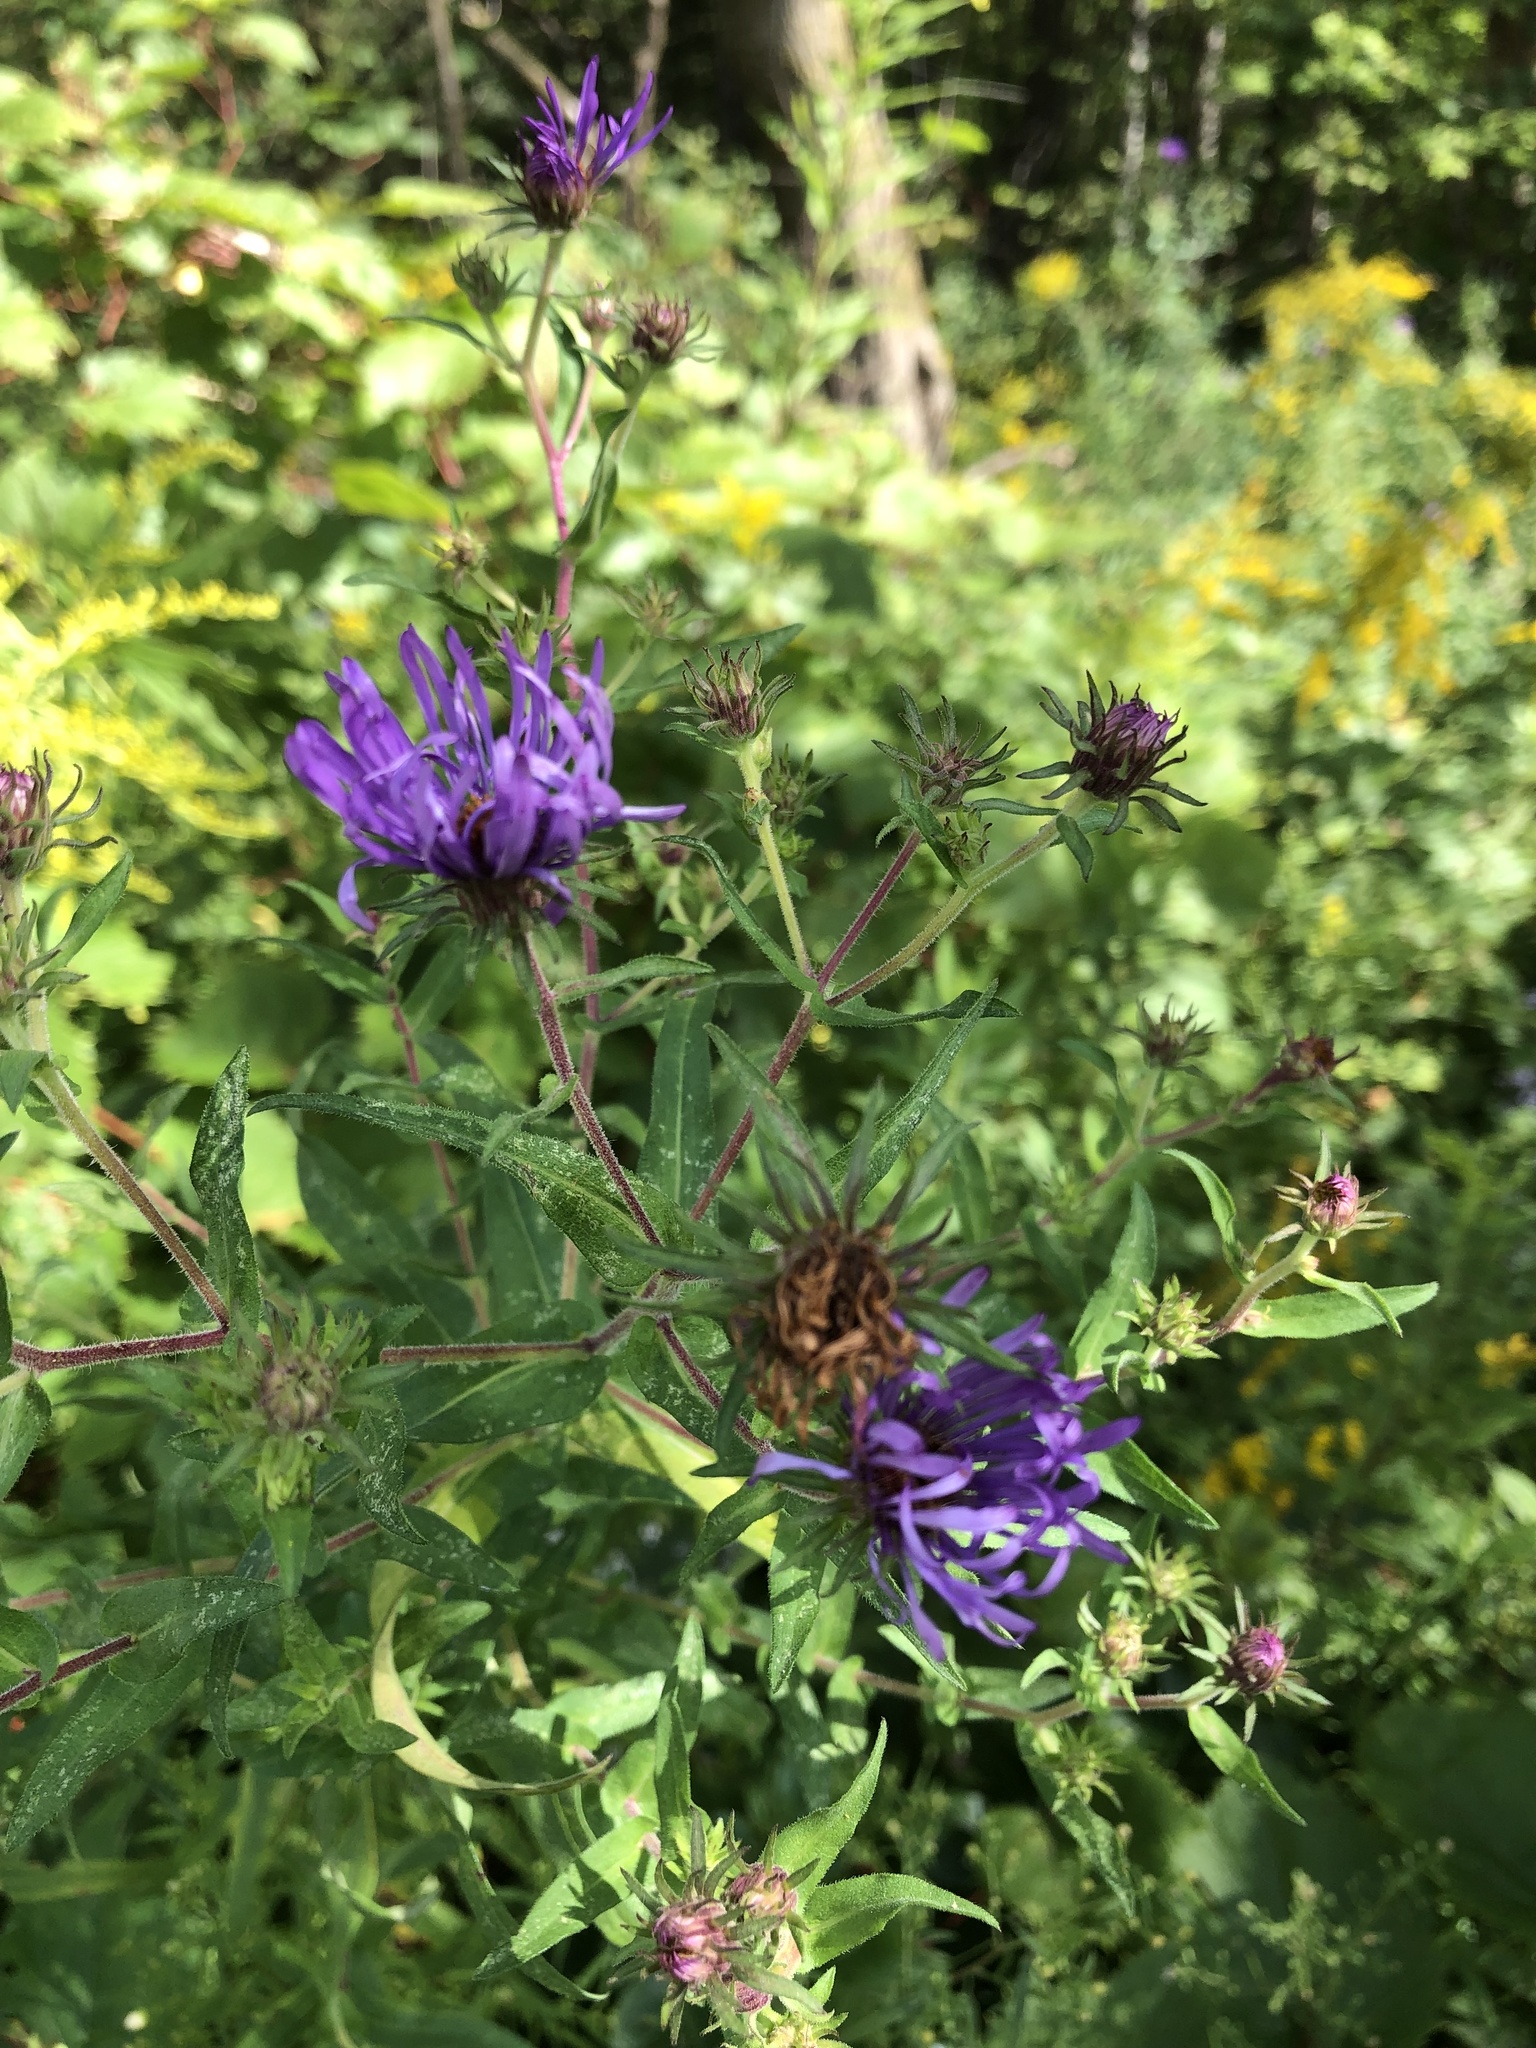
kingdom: Plantae
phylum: Tracheophyta
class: Magnoliopsida
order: Asterales
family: Asteraceae
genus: Symphyotrichum
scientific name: Symphyotrichum novae-angliae
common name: Michaelmas daisy
